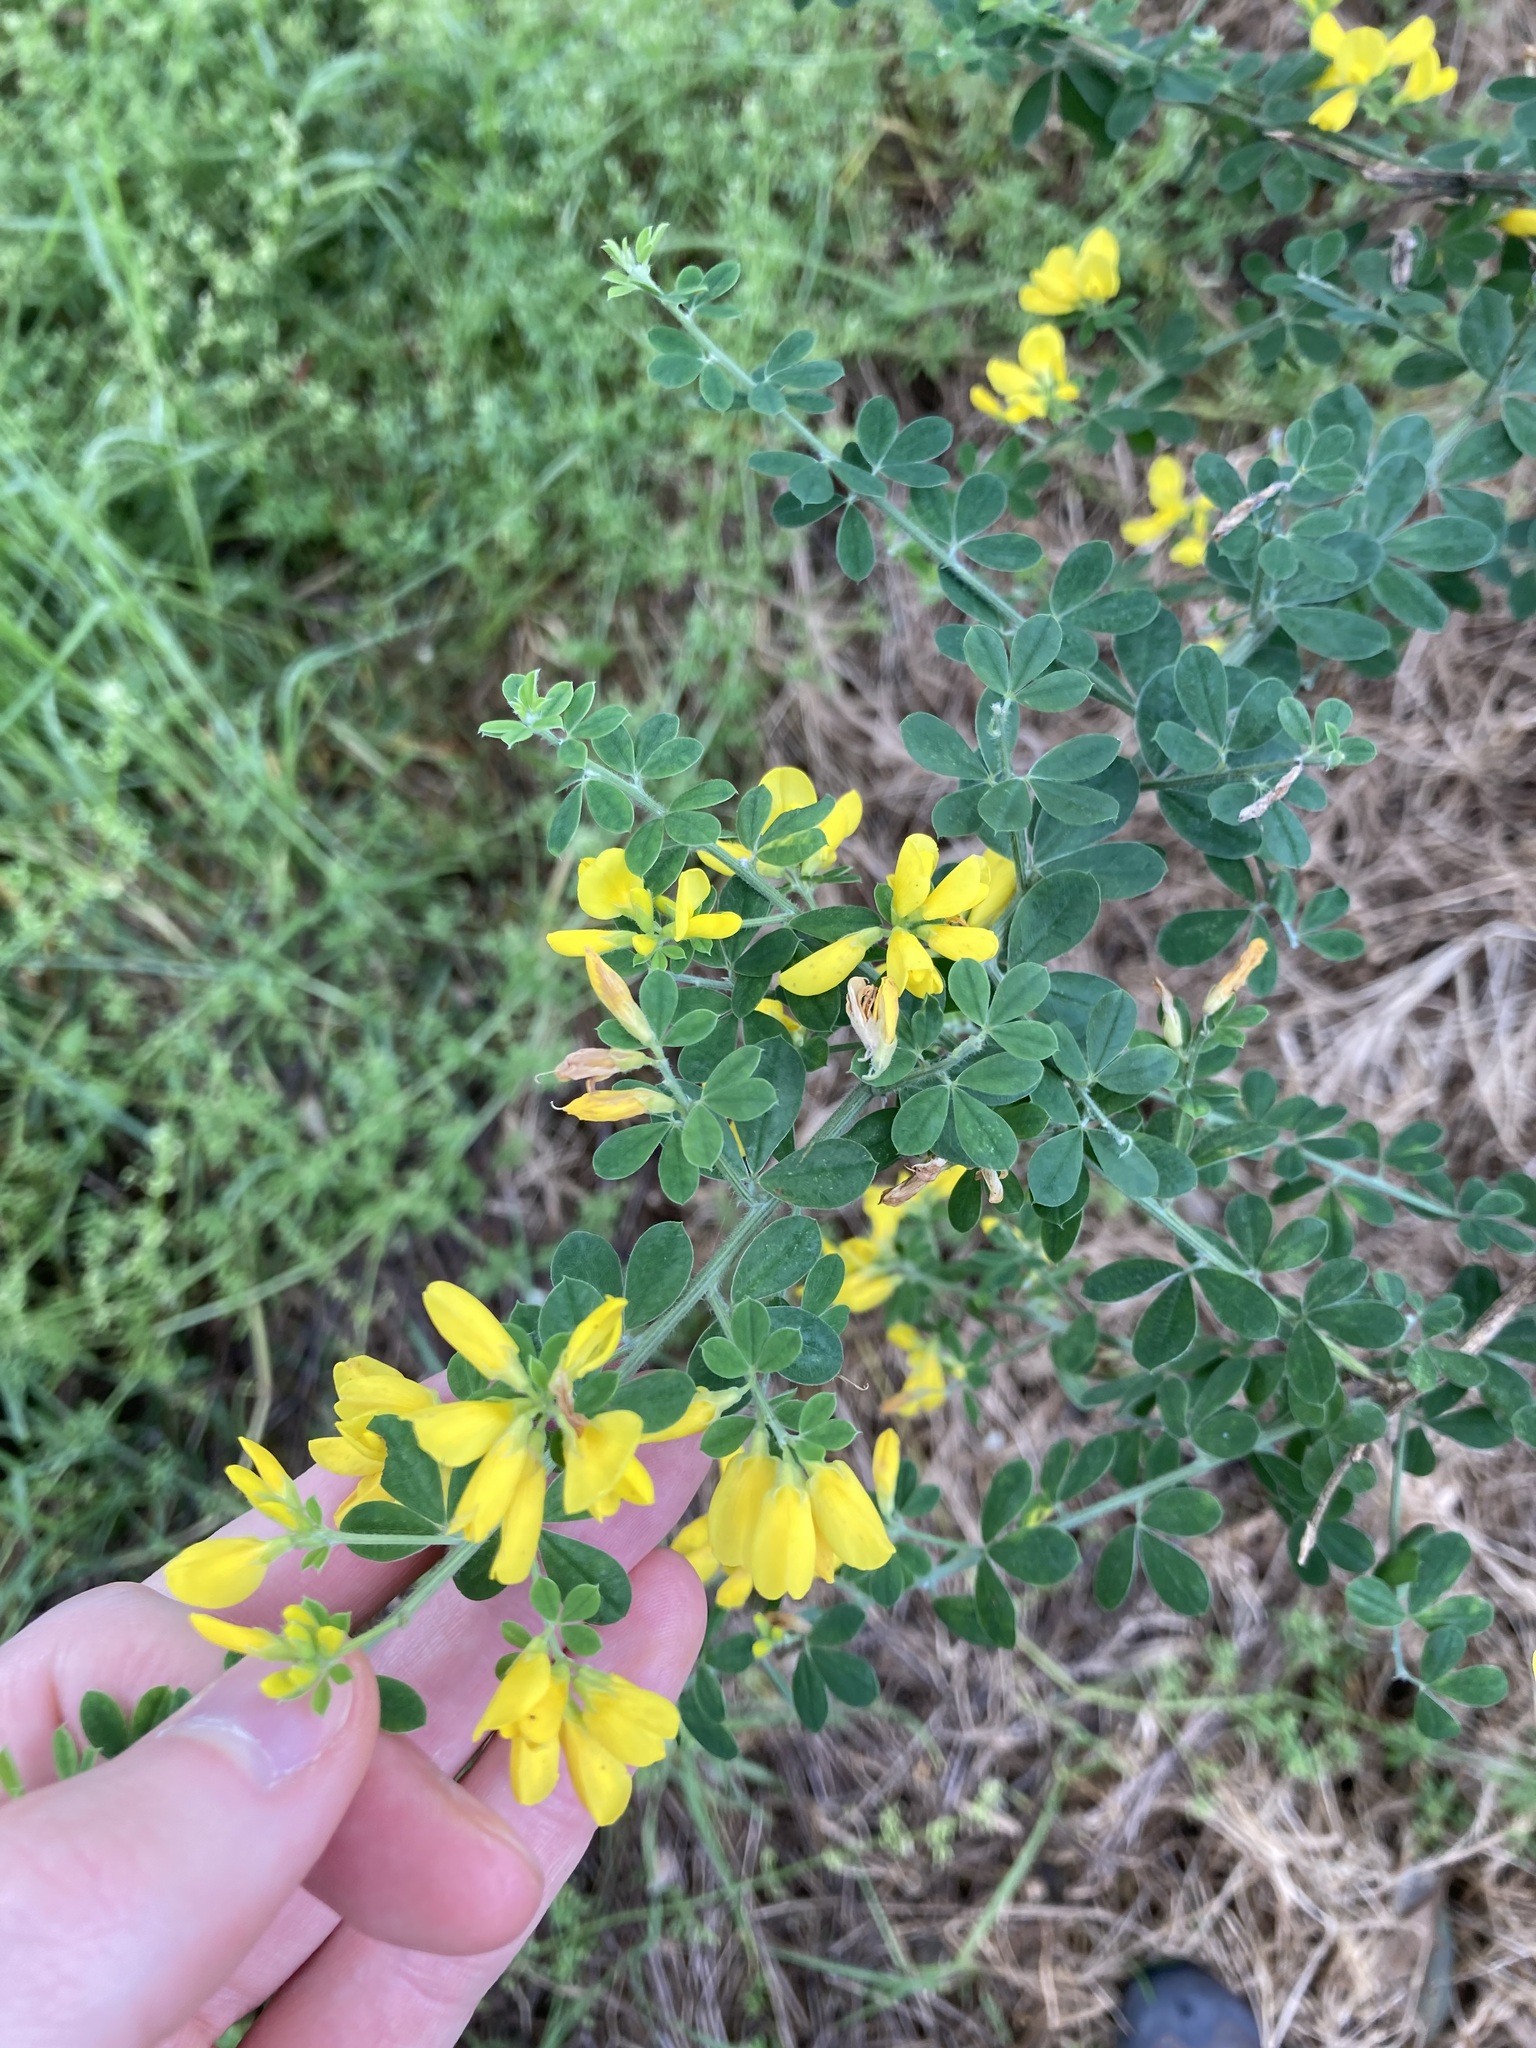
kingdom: Plantae
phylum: Tracheophyta
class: Magnoliopsida
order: Fabales
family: Fabaceae
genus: Genista
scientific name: Genista monspessulana
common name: Montpellier broom
